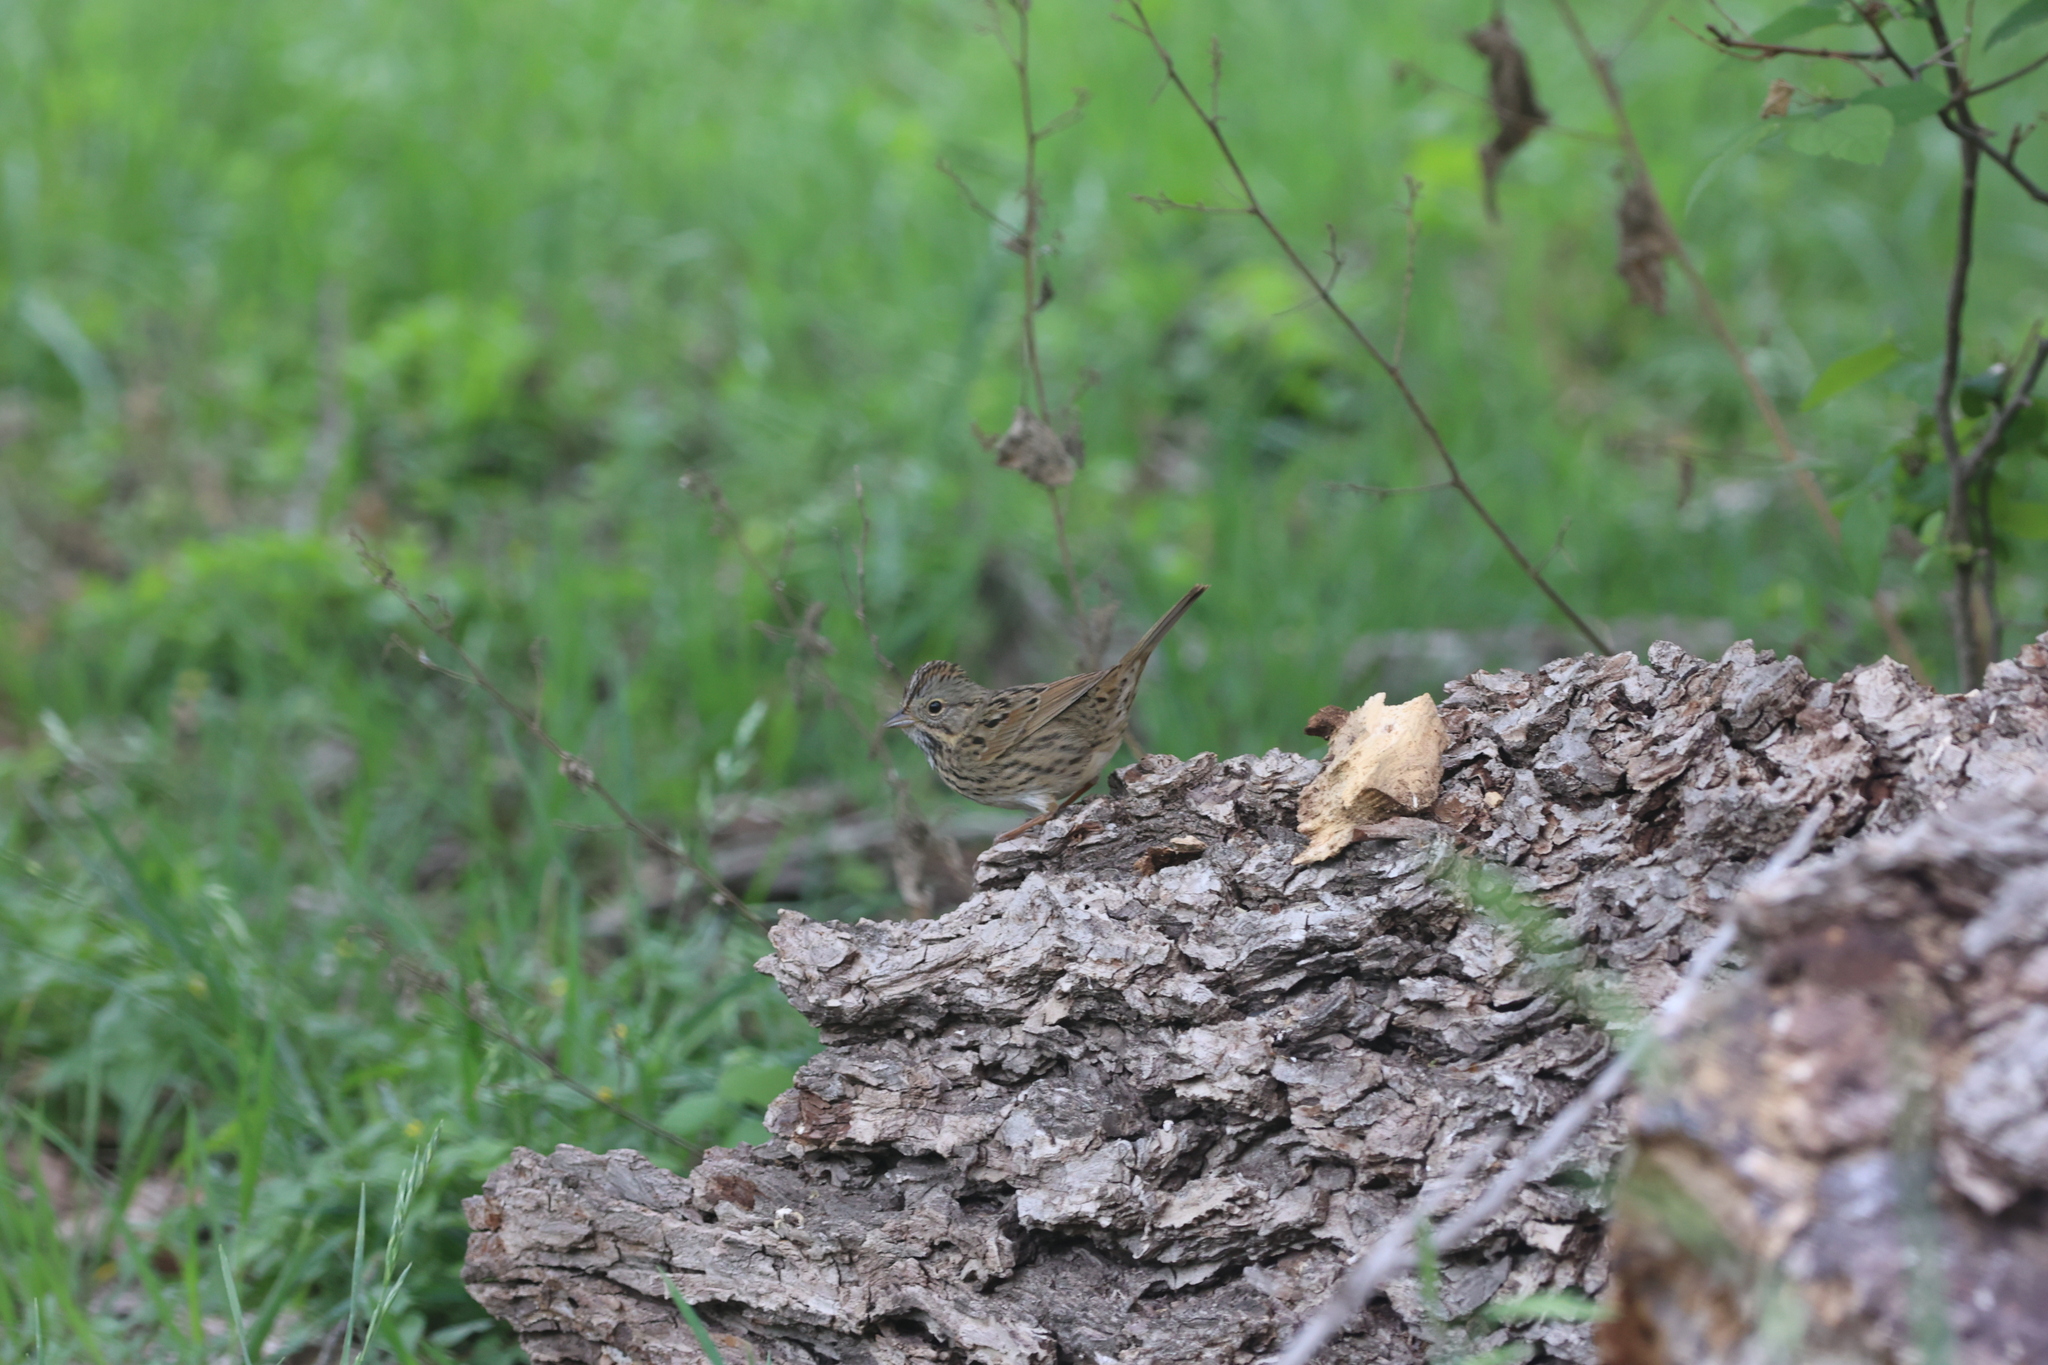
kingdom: Animalia
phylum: Chordata
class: Aves
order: Passeriformes
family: Passerellidae
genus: Melospiza
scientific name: Melospiza lincolnii
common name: Lincoln's sparrow
